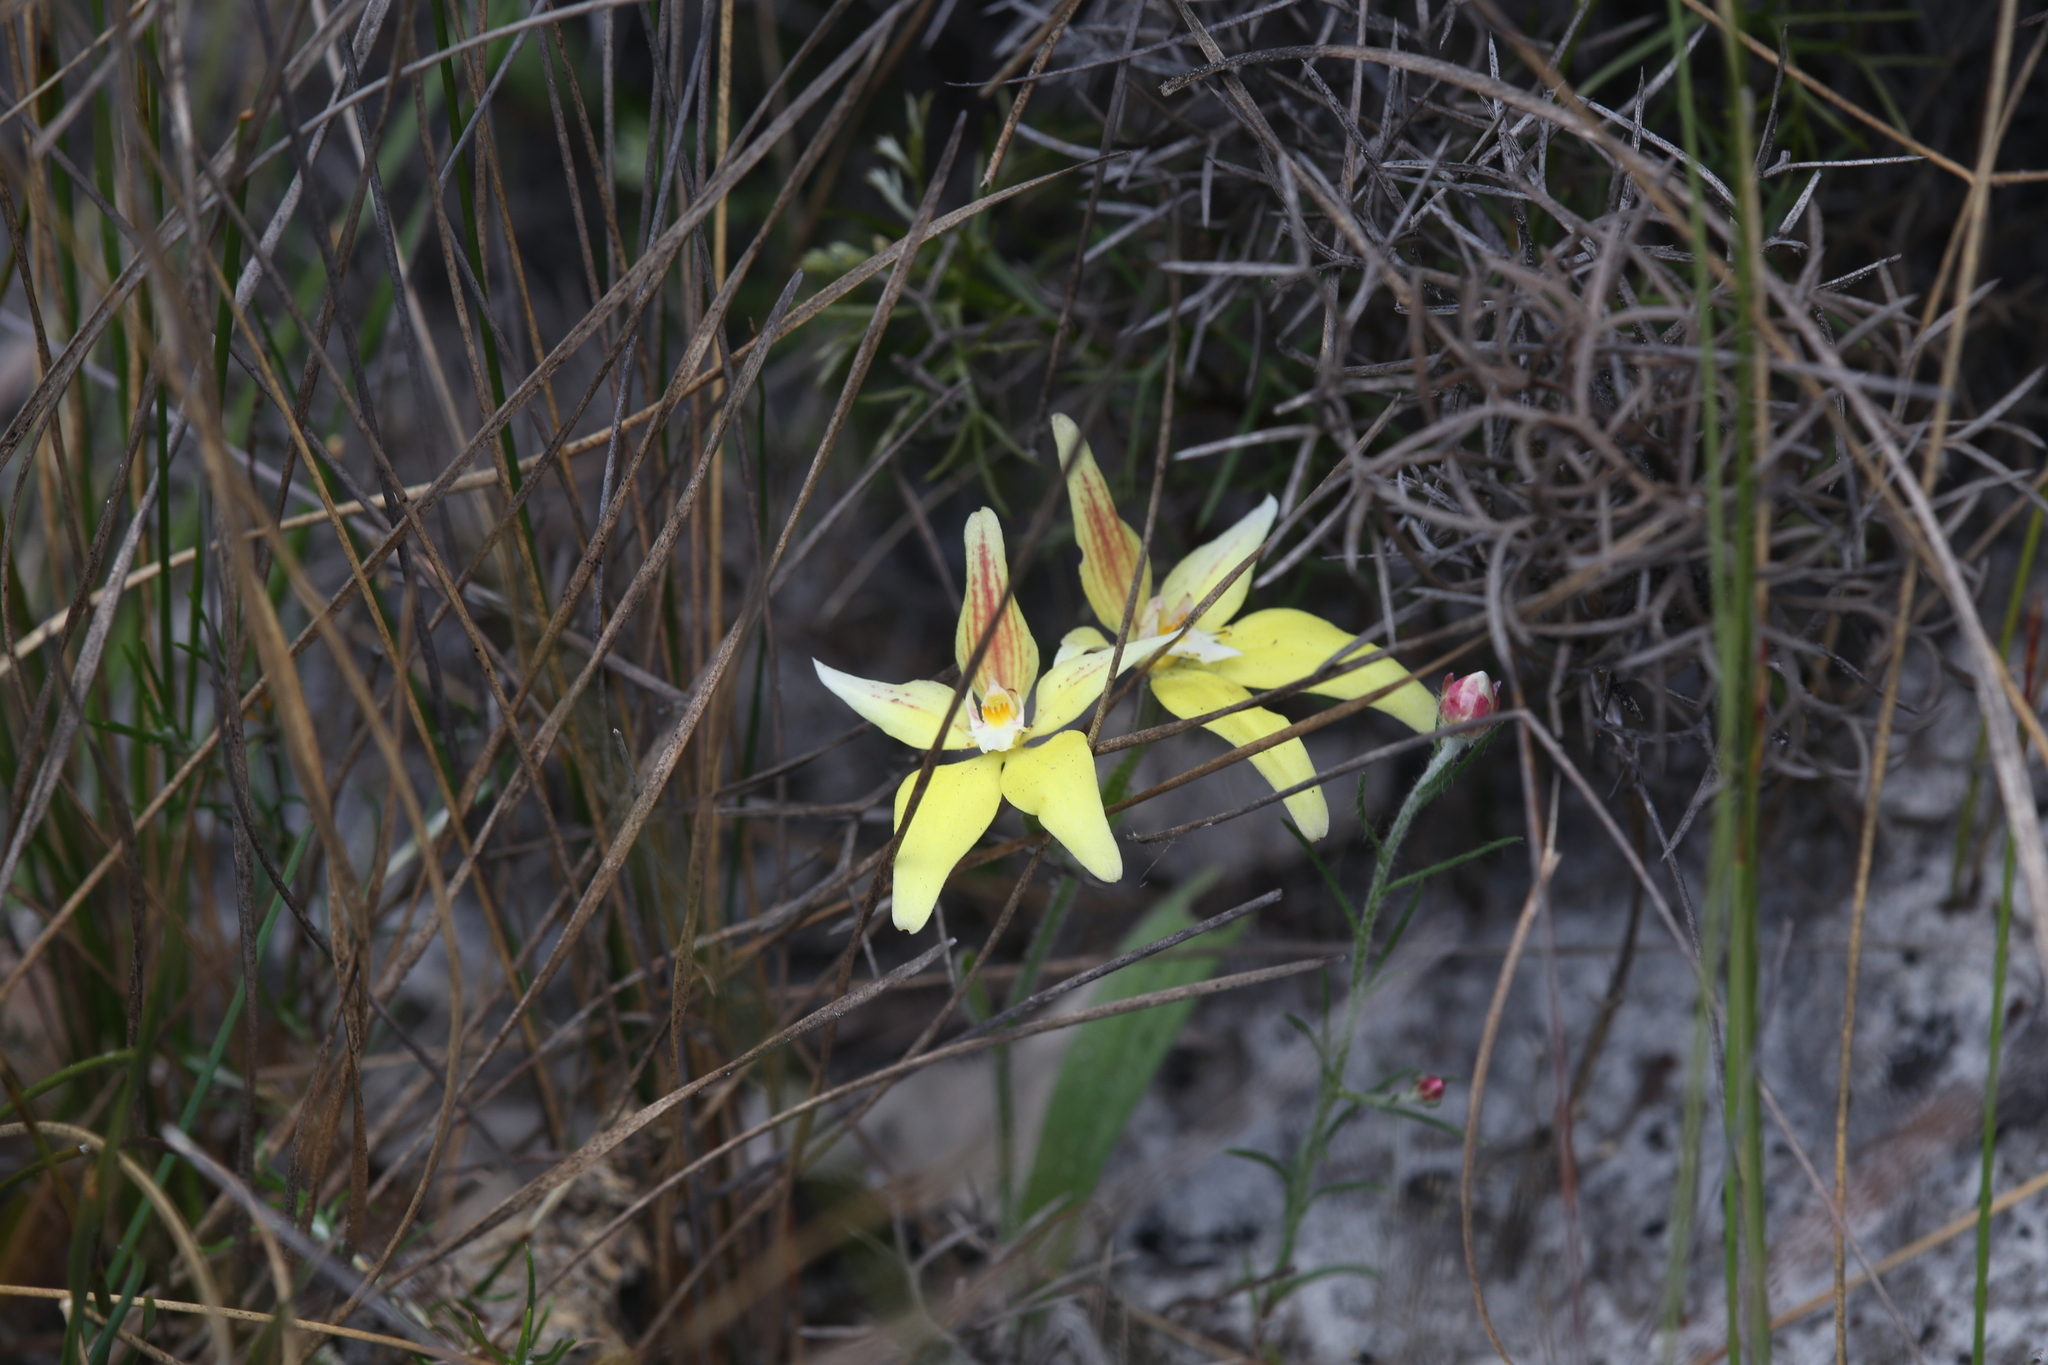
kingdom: Plantae
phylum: Tracheophyta
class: Liliopsida
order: Asparagales
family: Orchidaceae
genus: Caladenia
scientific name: Caladenia flava
